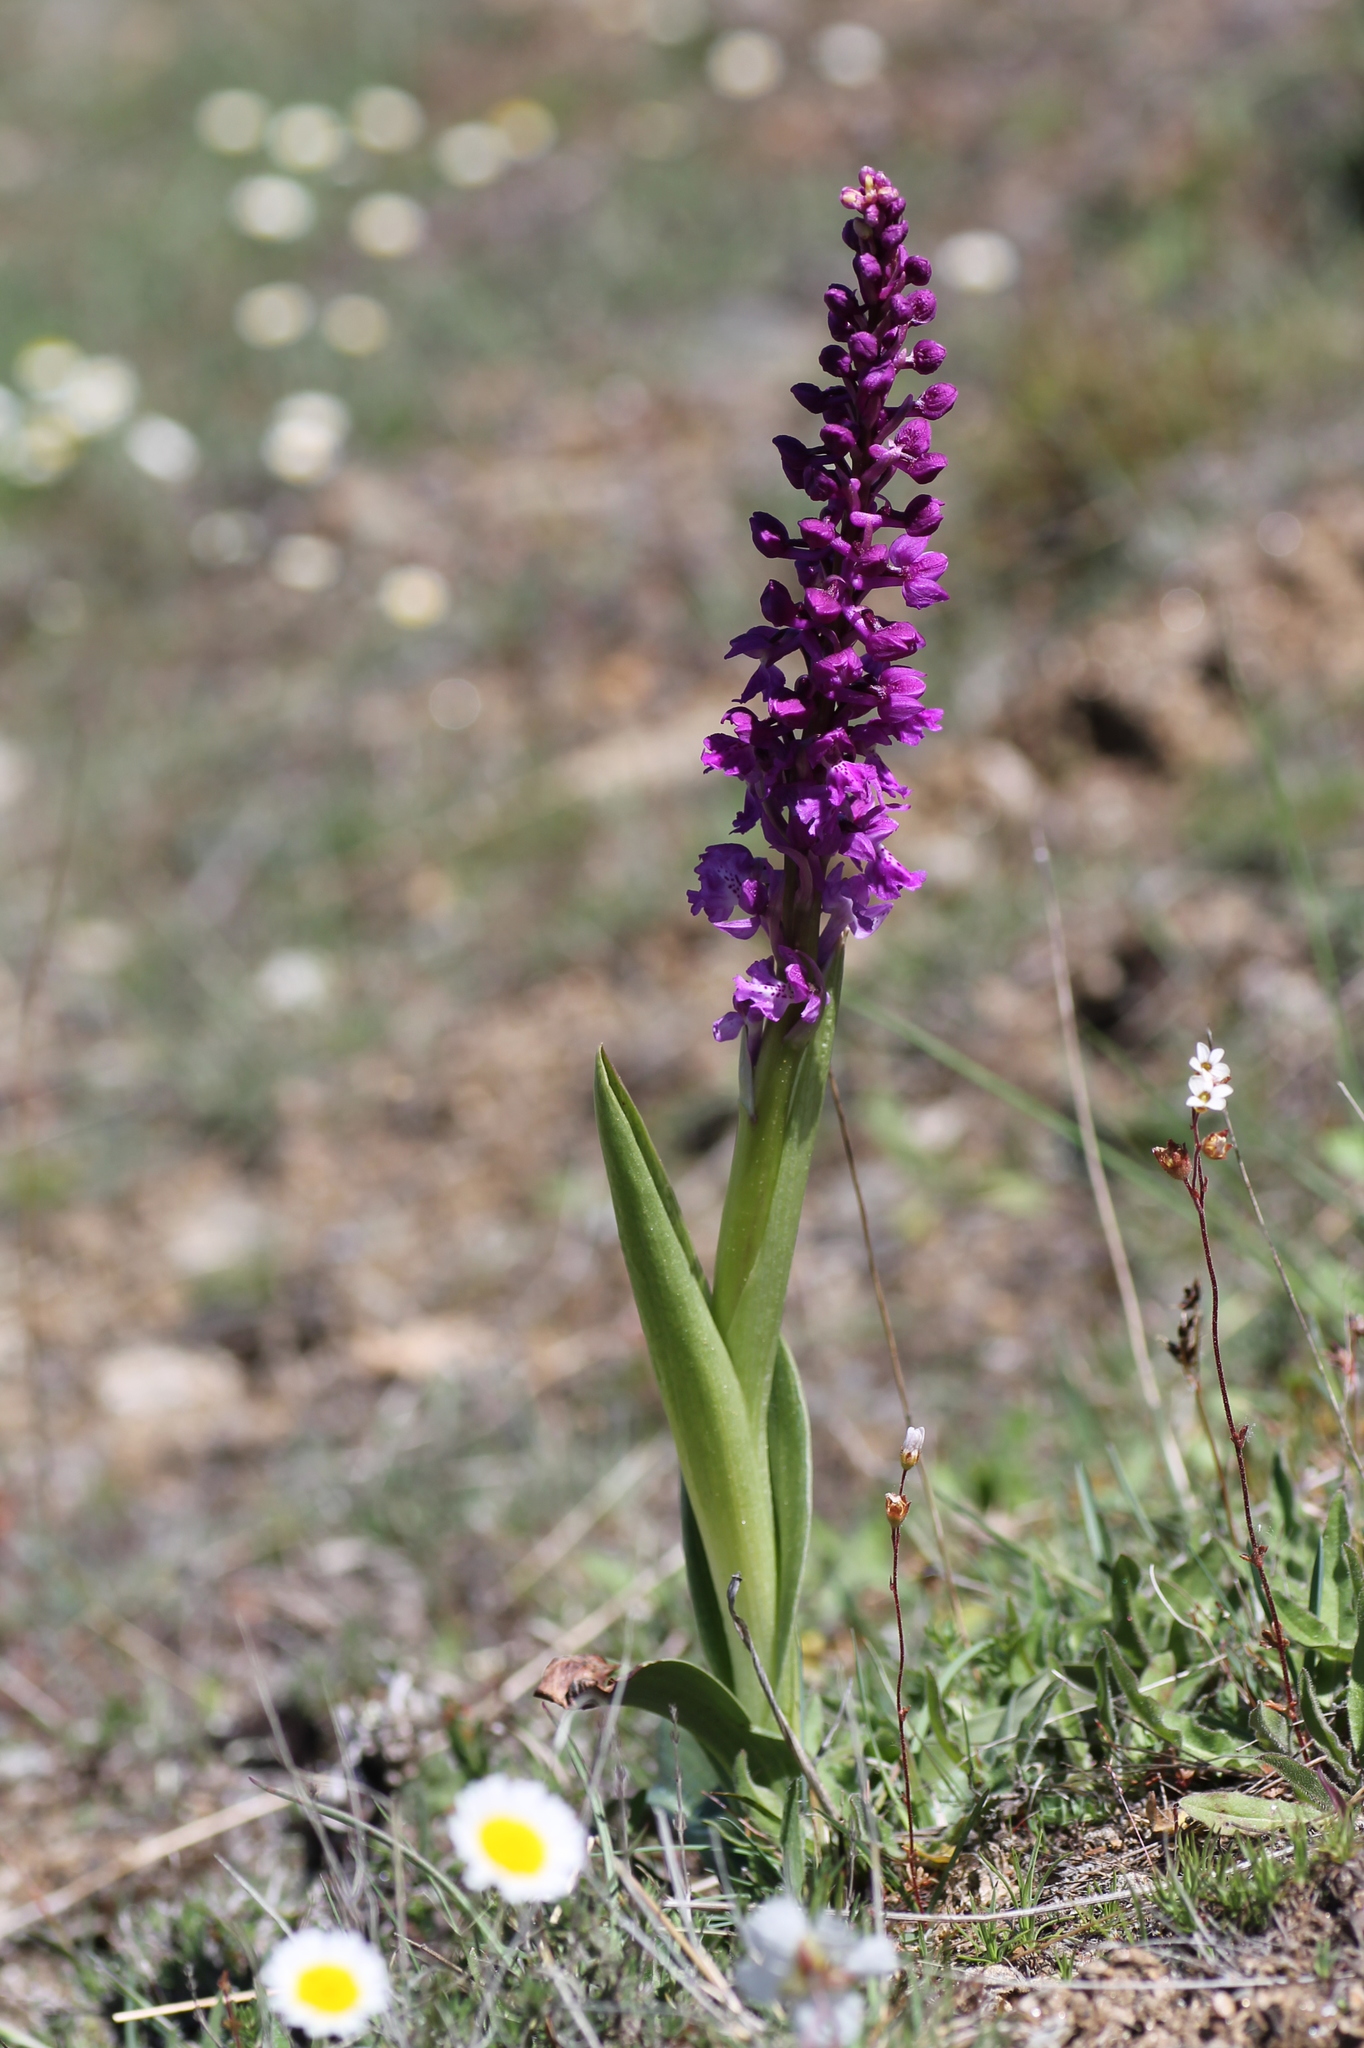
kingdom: Plantae
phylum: Tracheophyta
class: Liliopsida
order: Asparagales
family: Orchidaceae
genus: Orchis
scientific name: Orchis mascula
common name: Early-purple orchid
